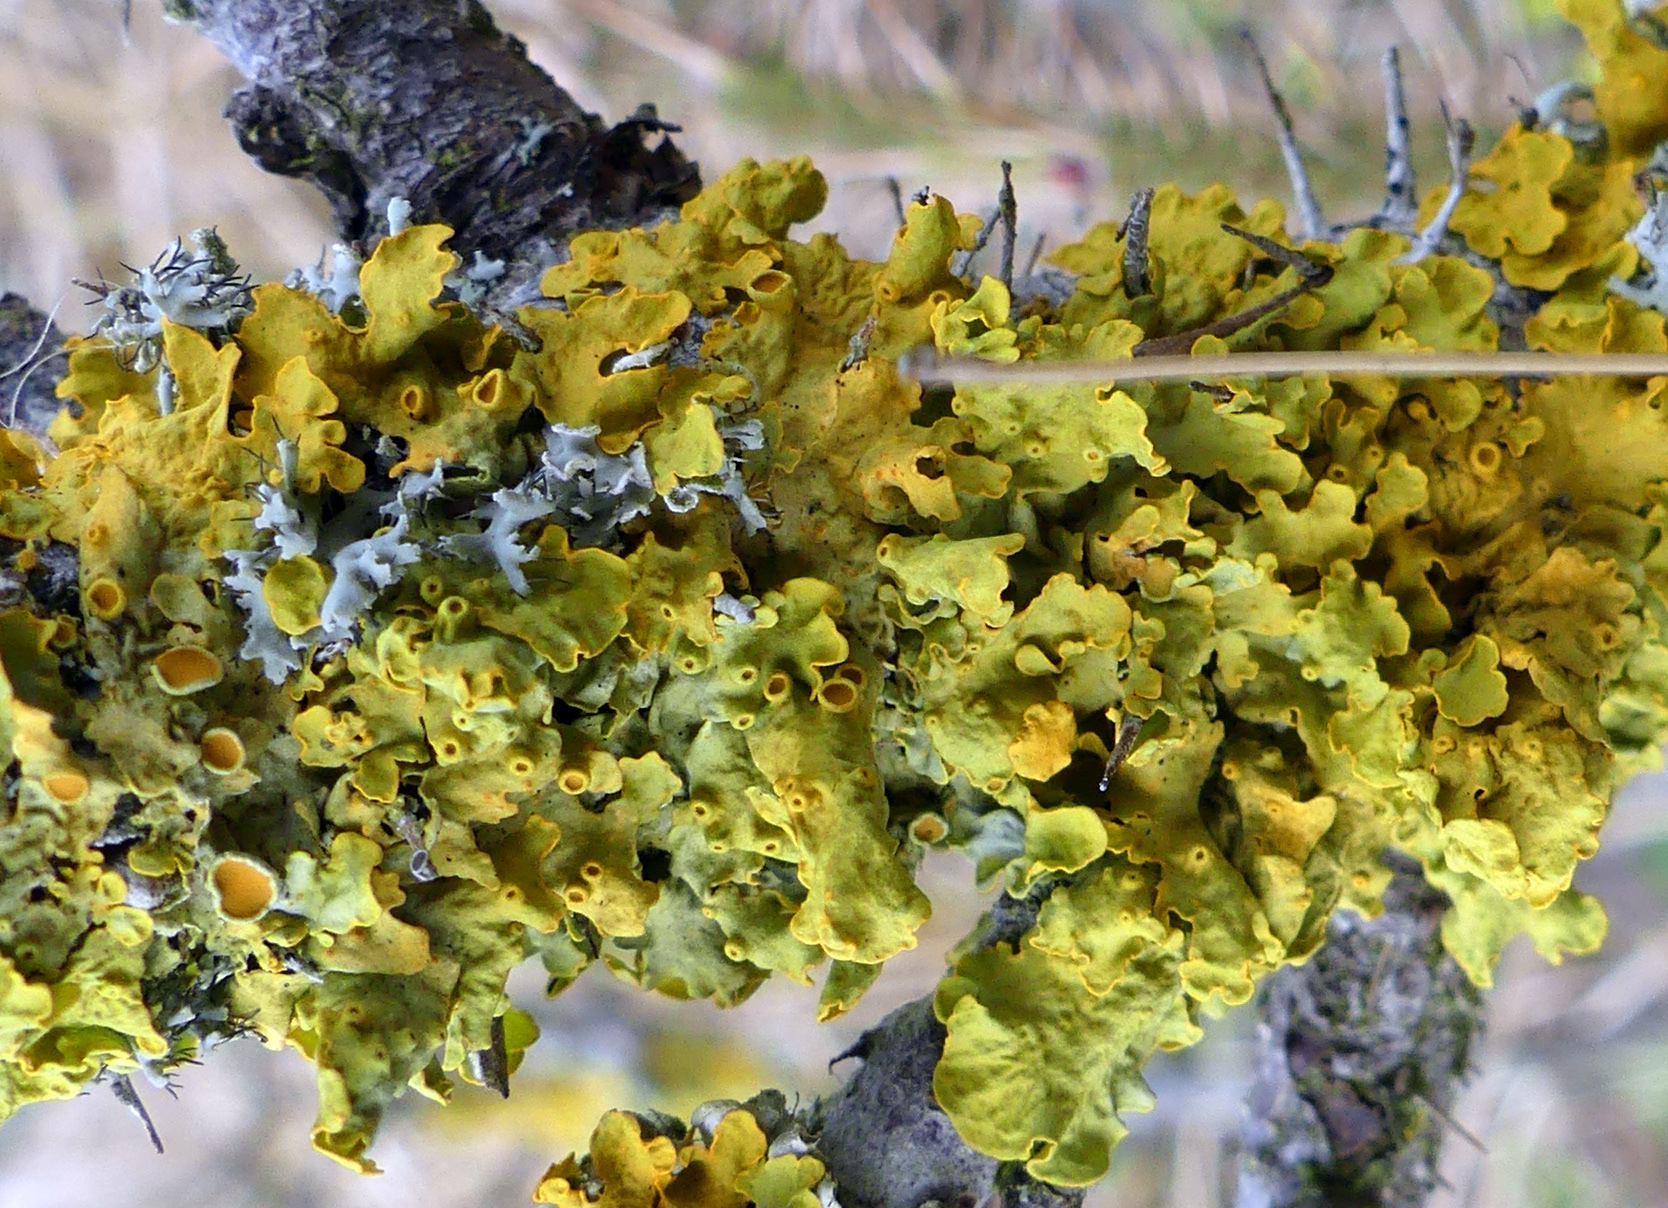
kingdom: Fungi
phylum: Ascomycota
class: Lecanoromycetes
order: Teloschistales
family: Teloschistaceae
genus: Xanthoria
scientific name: Xanthoria parietina
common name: Common orange lichen
